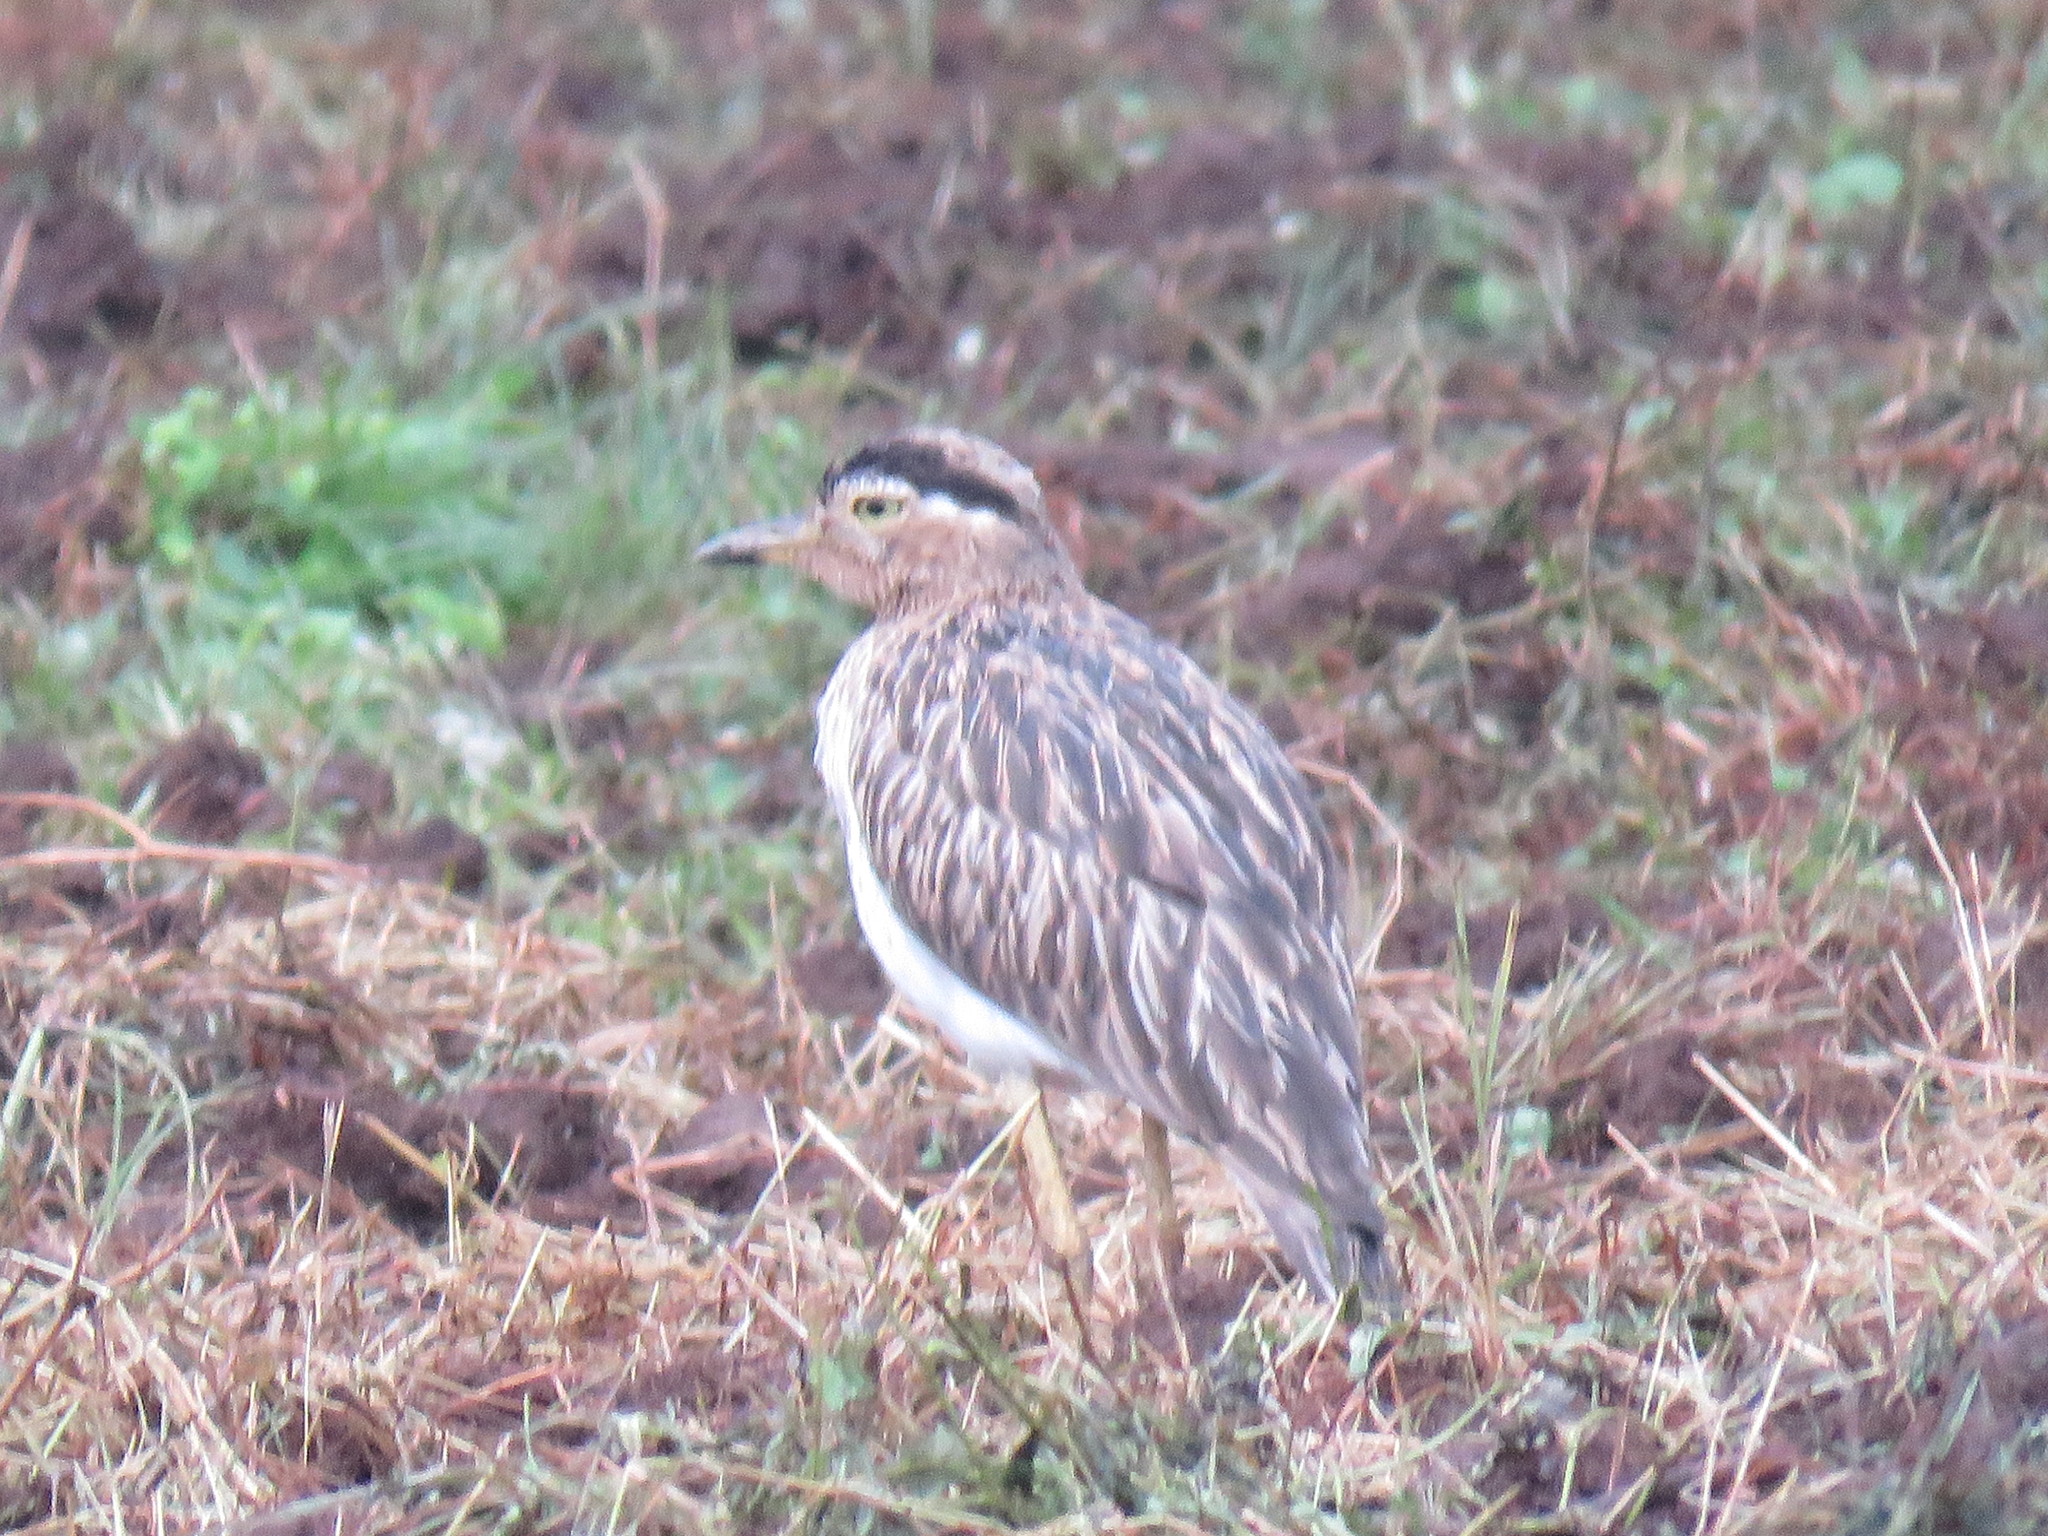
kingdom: Animalia
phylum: Chordata
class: Aves
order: Charadriiformes
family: Burhinidae
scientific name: Burhinidae
